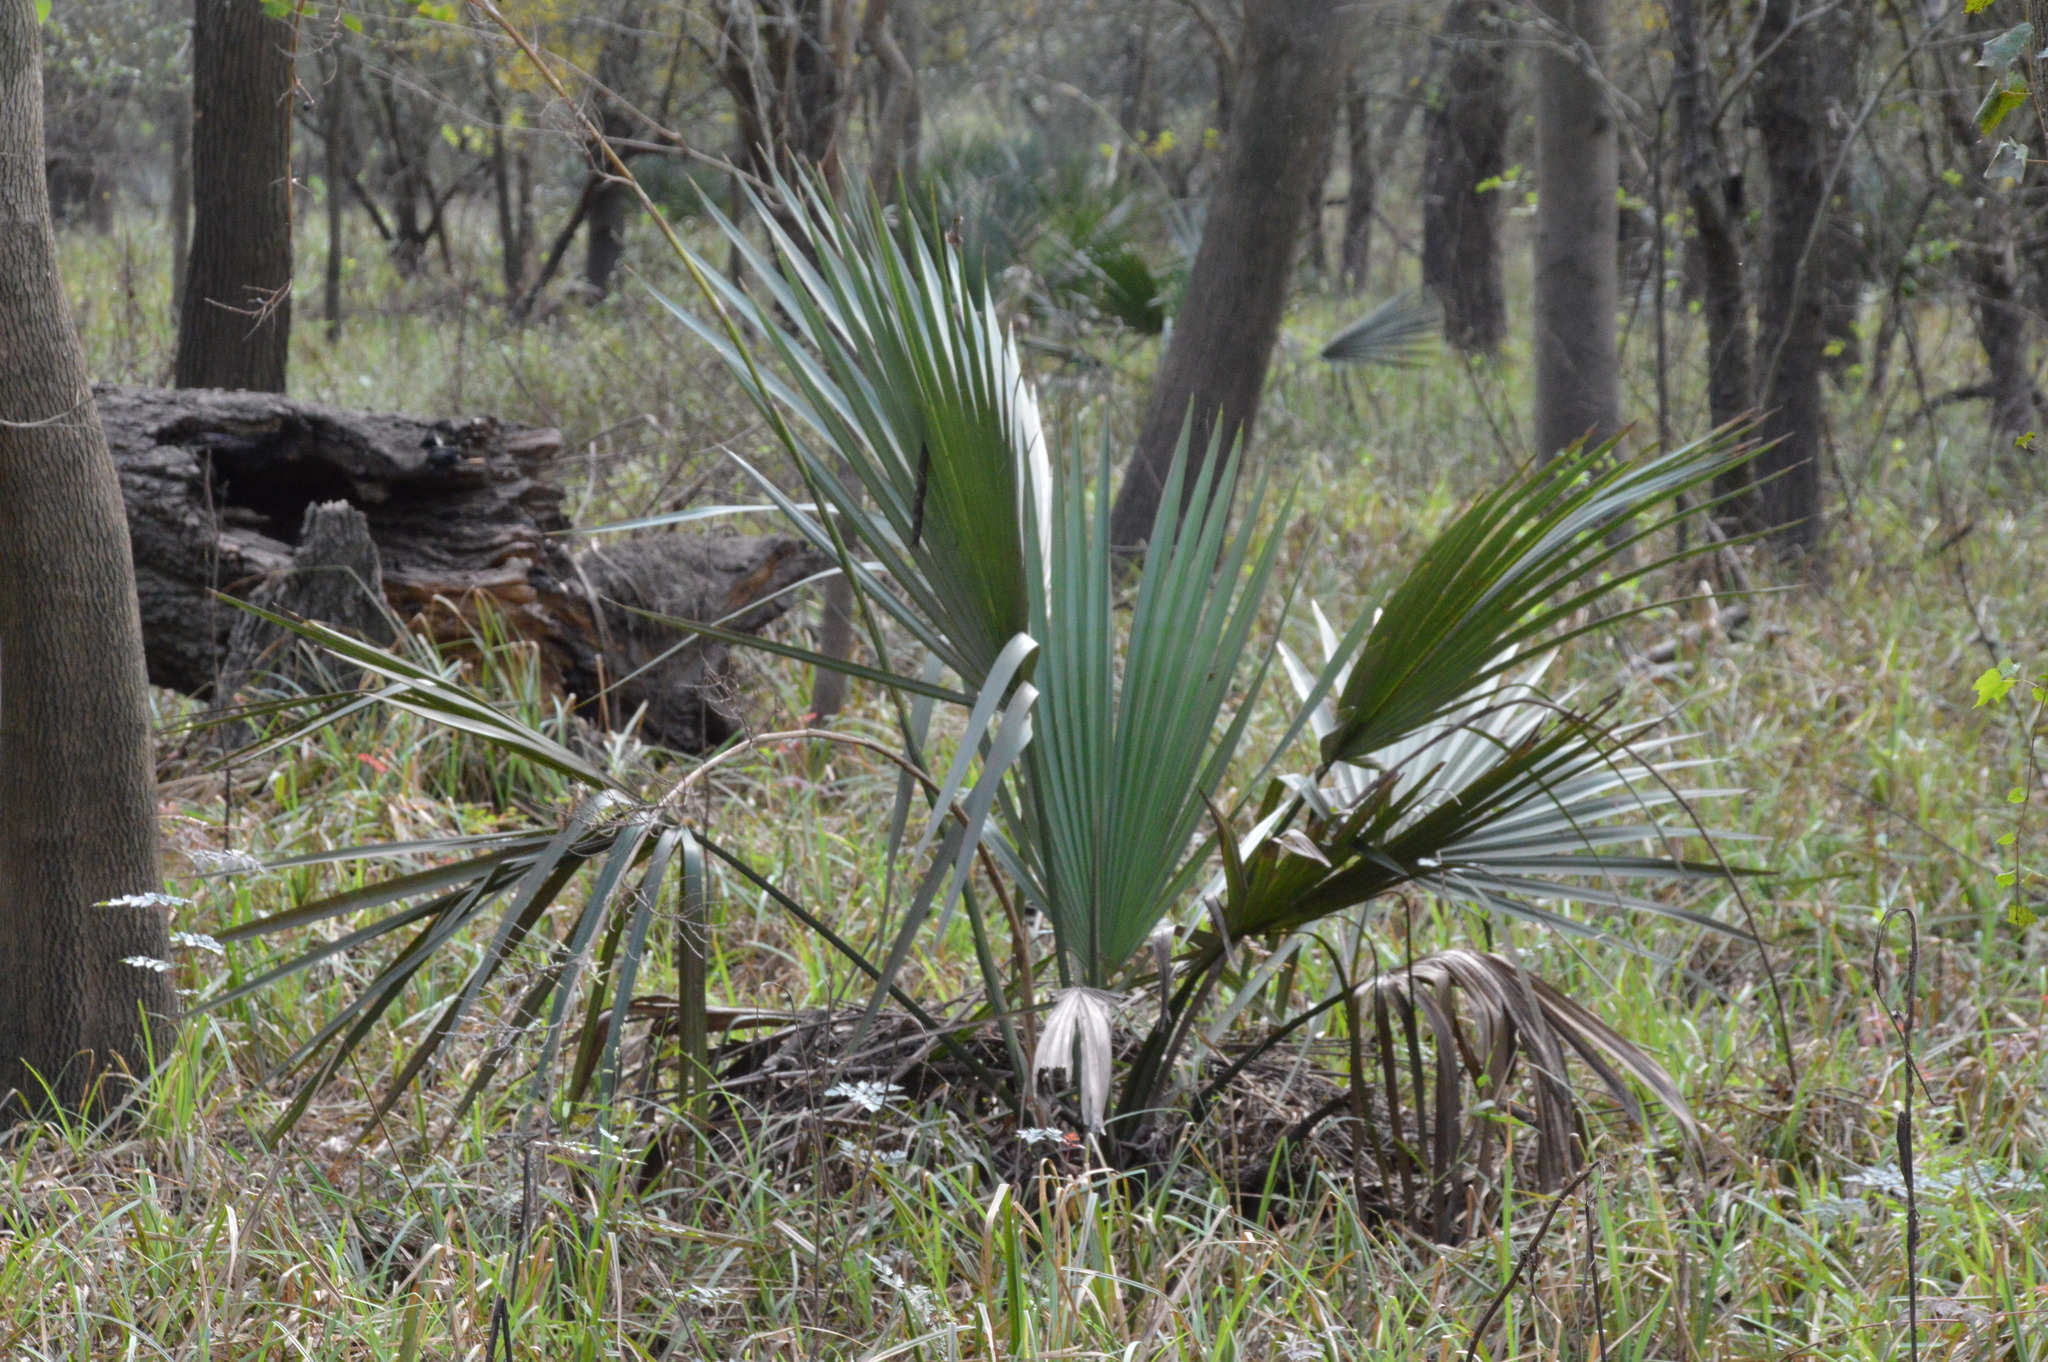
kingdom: Plantae
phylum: Tracheophyta
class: Liliopsida
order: Arecales
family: Arecaceae
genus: Sabal
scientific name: Sabal minor
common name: Dwarf palmetto
